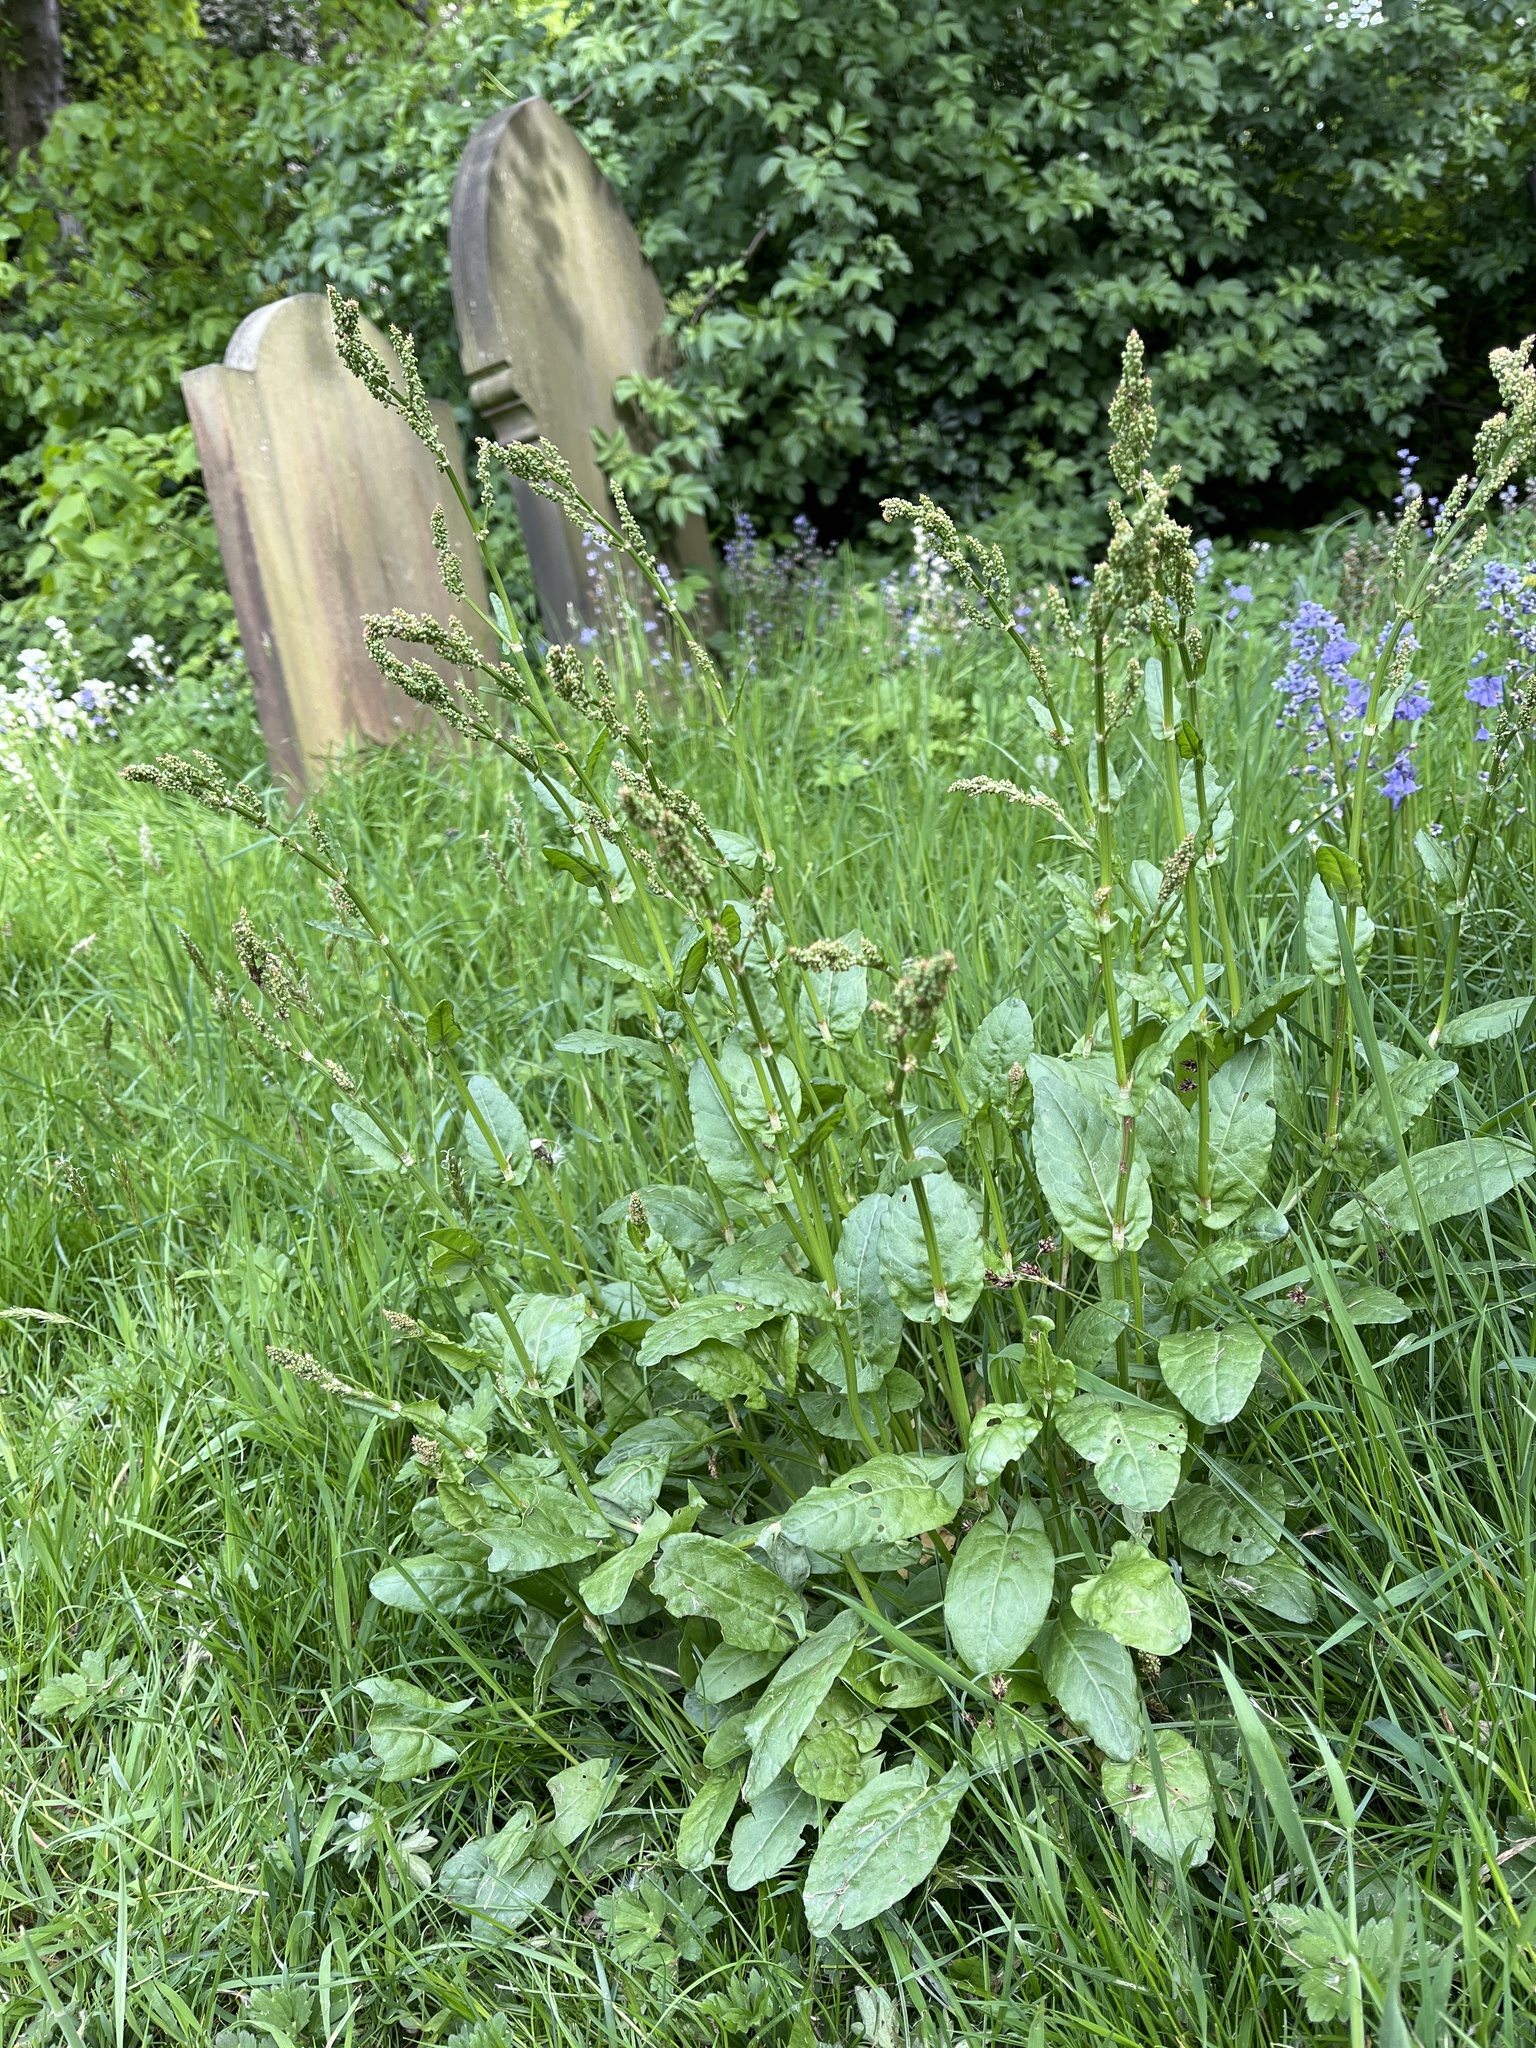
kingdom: Plantae
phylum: Tracheophyta
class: Magnoliopsida
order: Caryophyllales
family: Polygonaceae
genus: Rumex
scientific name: Rumex acetosa
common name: Garden sorrel
